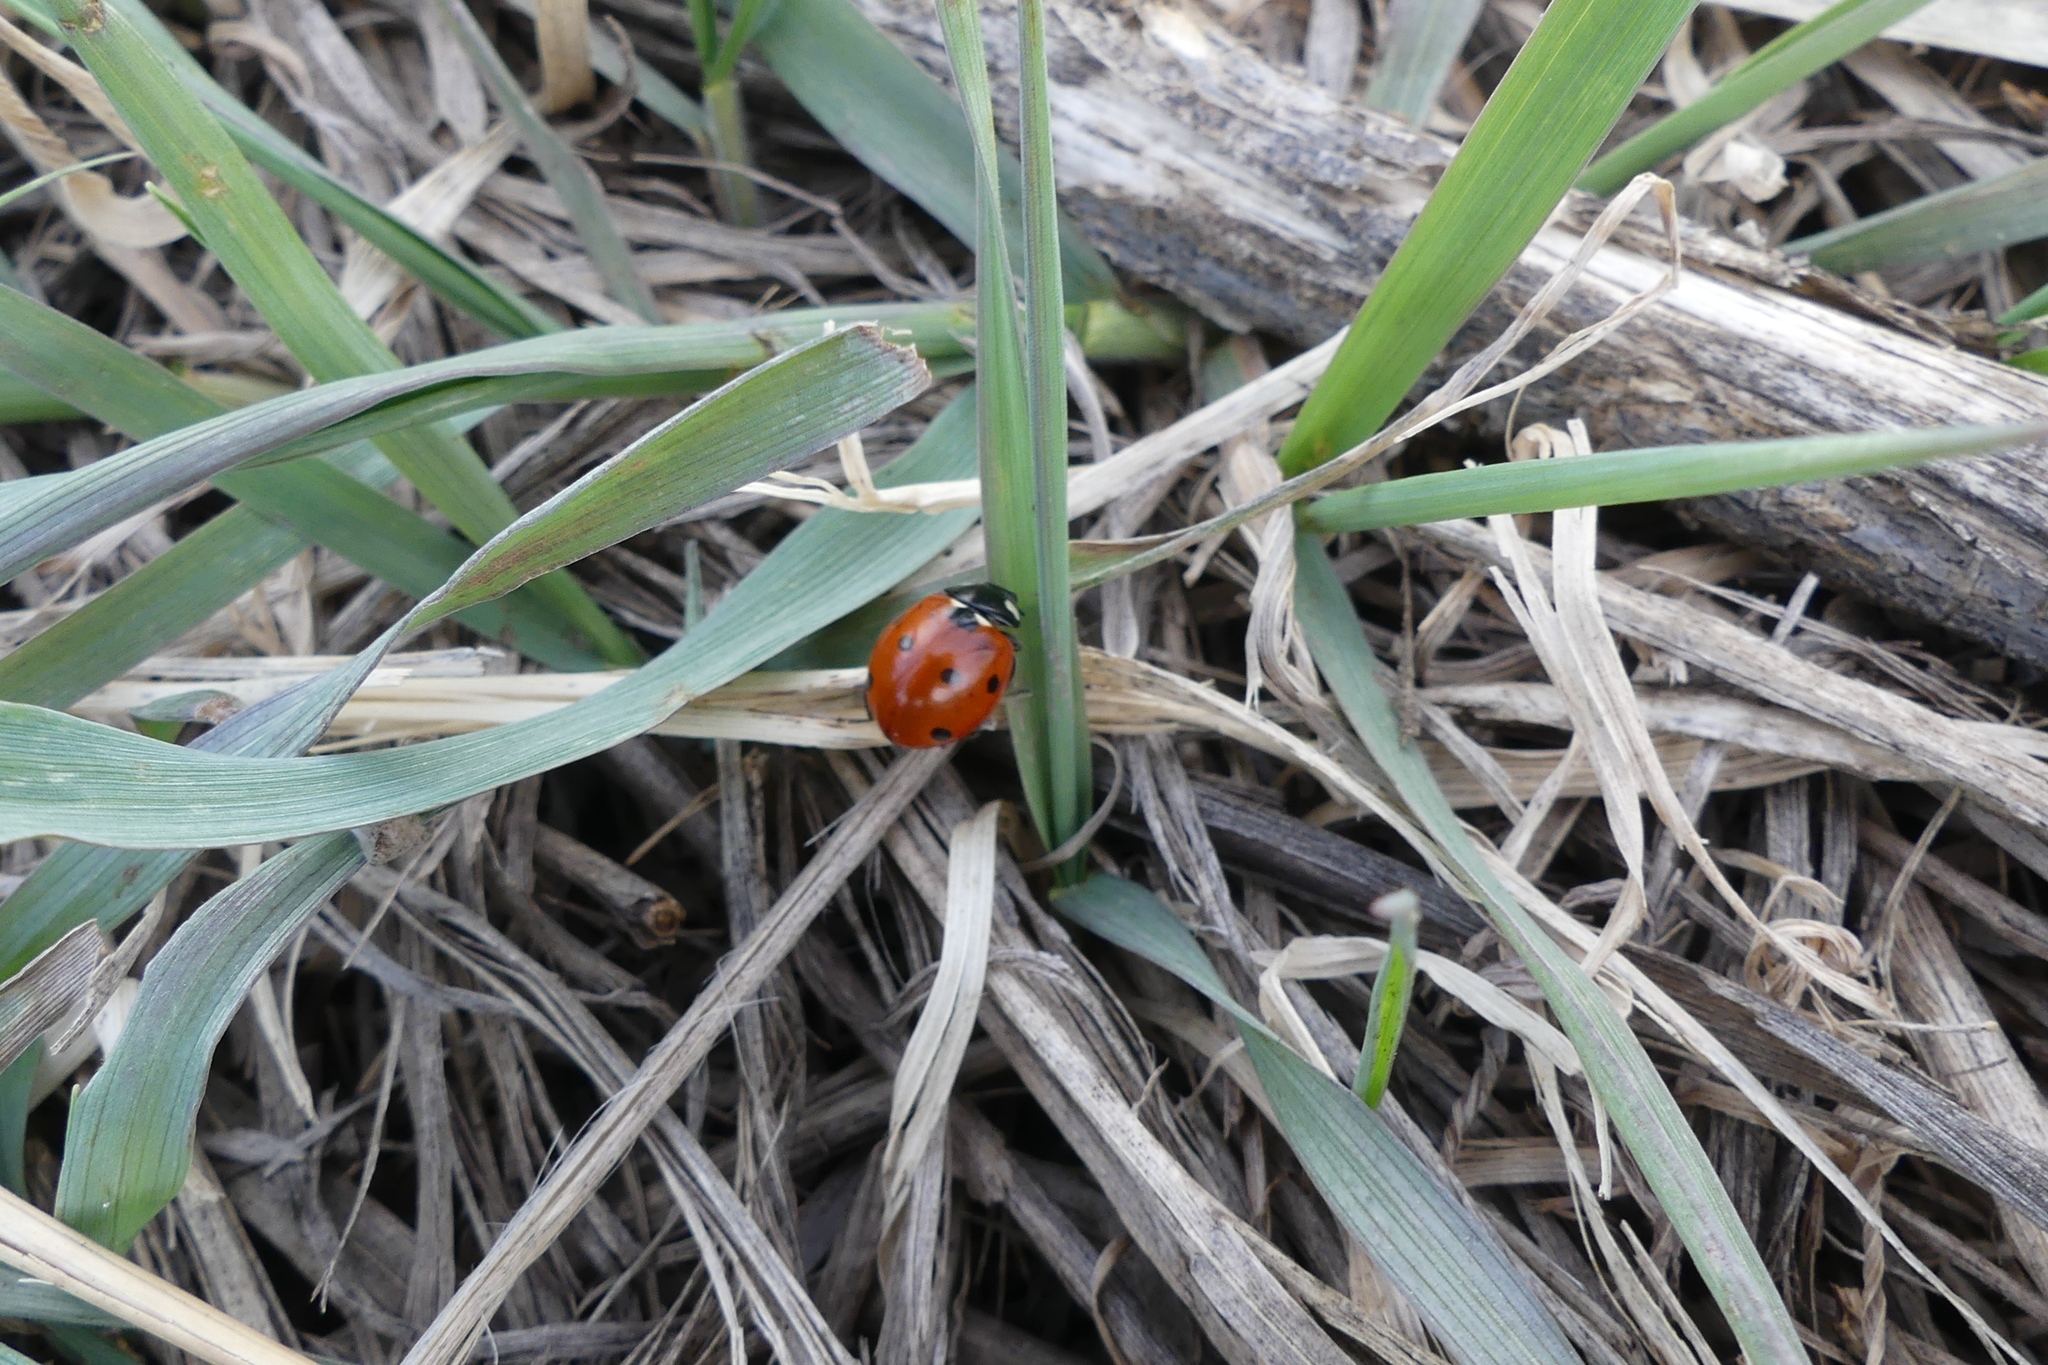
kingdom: Animalia
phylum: Arthropoda
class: Insecta
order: Coleoptera
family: Coccinellidae
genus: Coccinella
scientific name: Coccinella septempunctata
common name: Sevenspotted lady beetle
